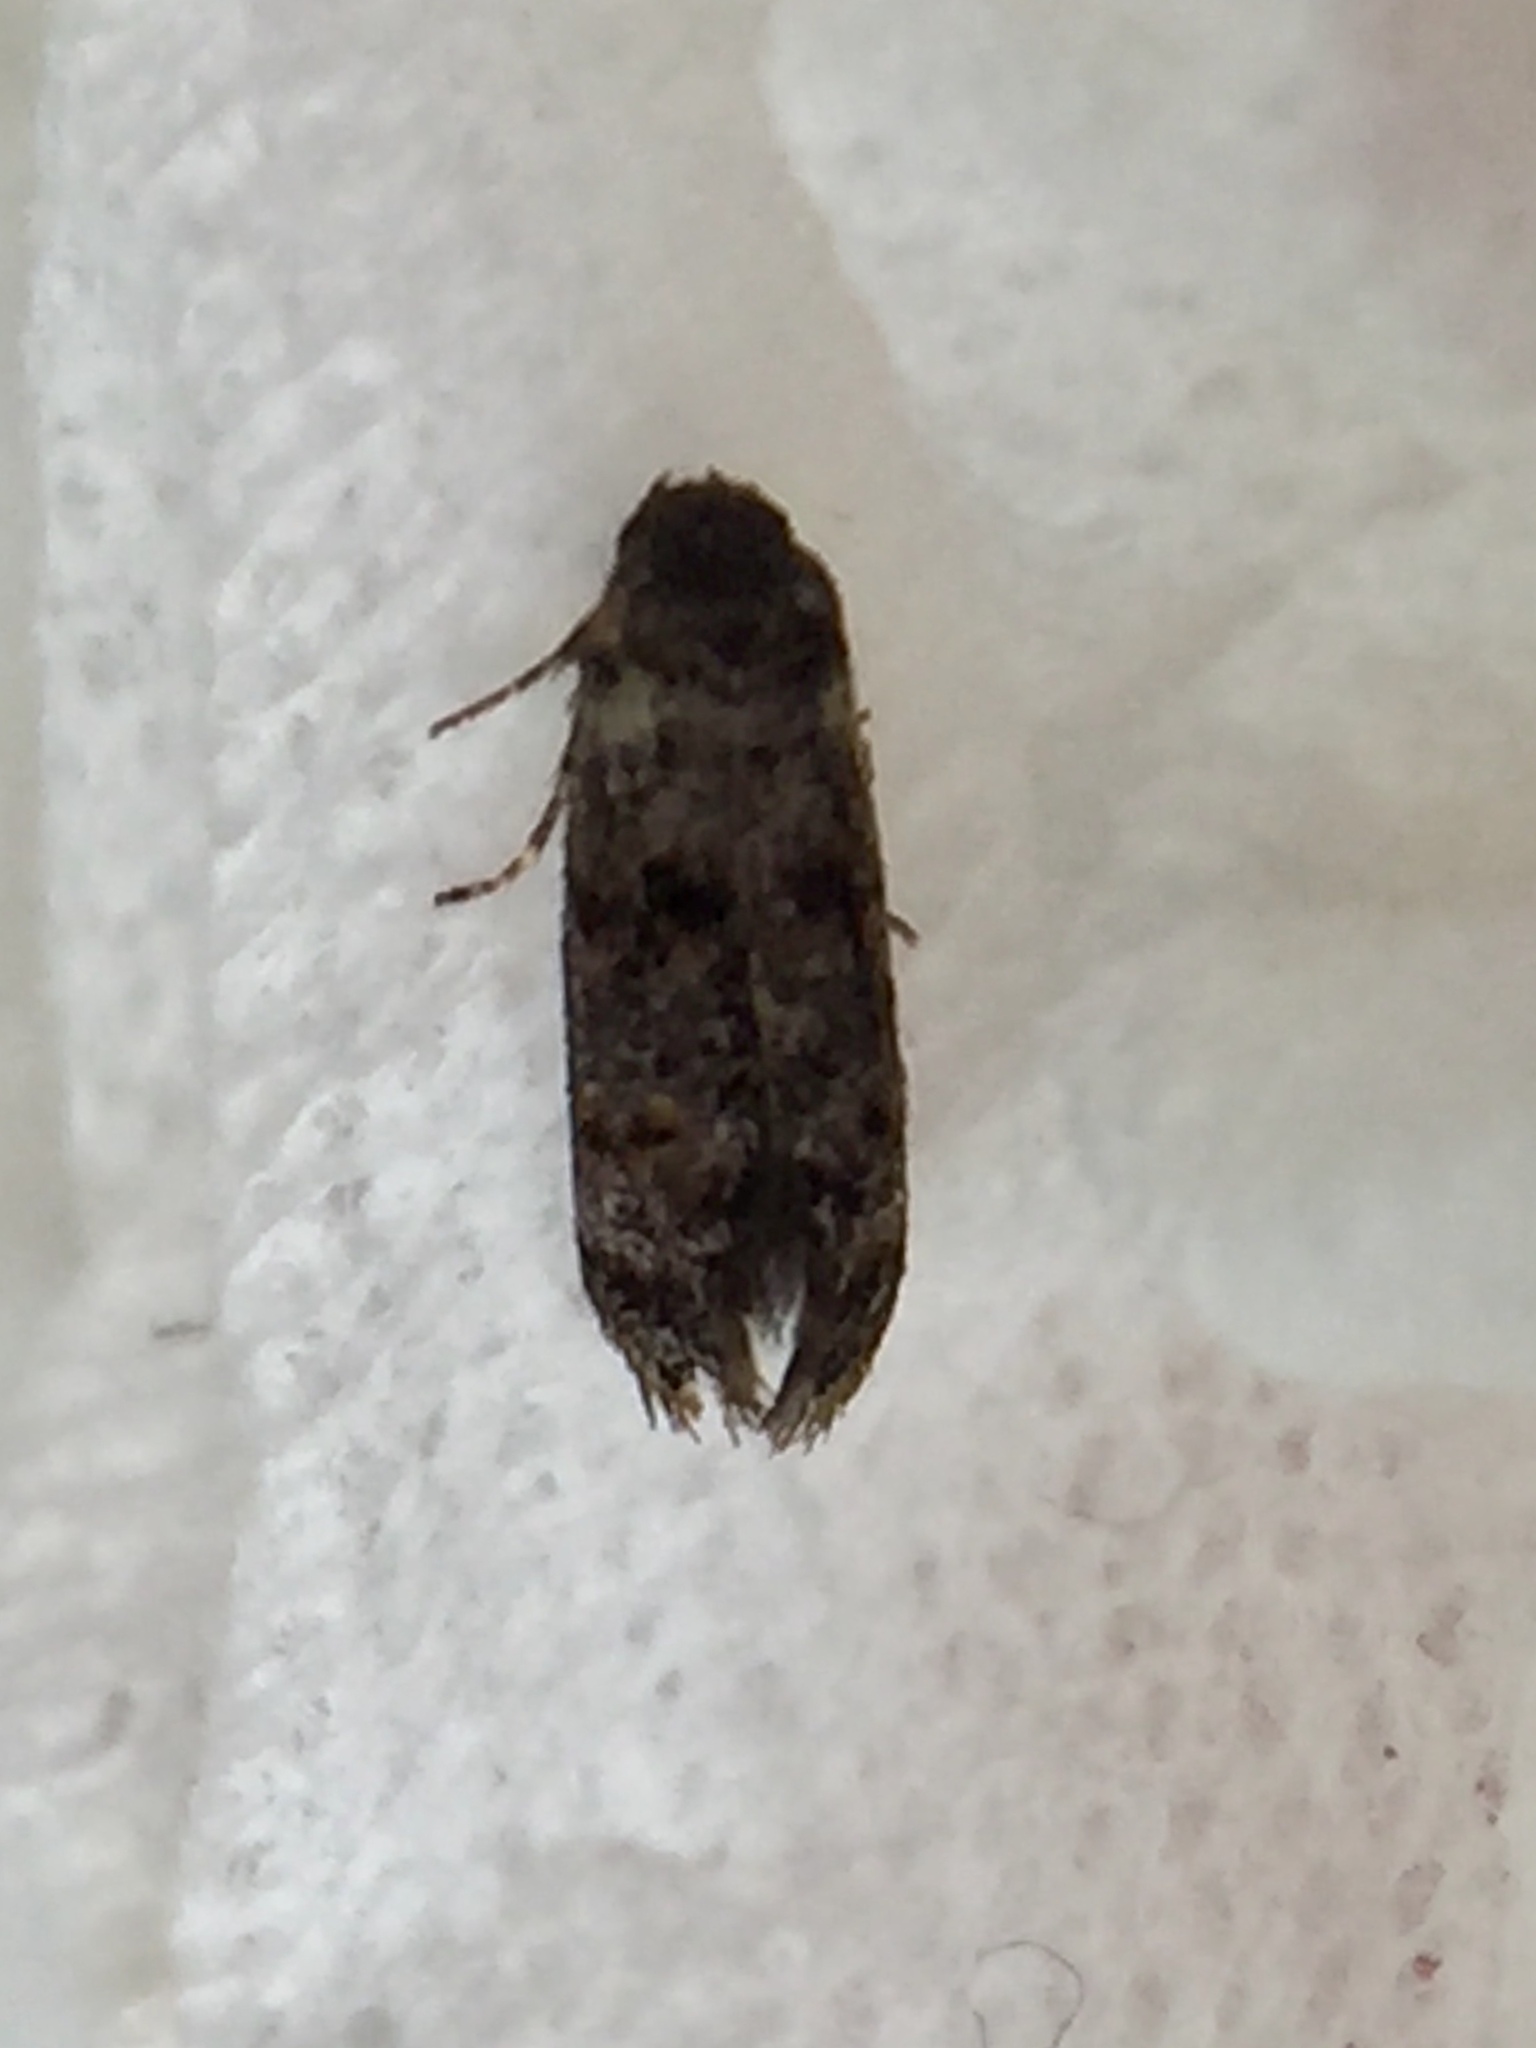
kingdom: Animalia
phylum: Arthropoda
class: Insecta
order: Lepidoptera
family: Oecophoridae
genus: Corocosma
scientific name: Corocosma memorabilis
